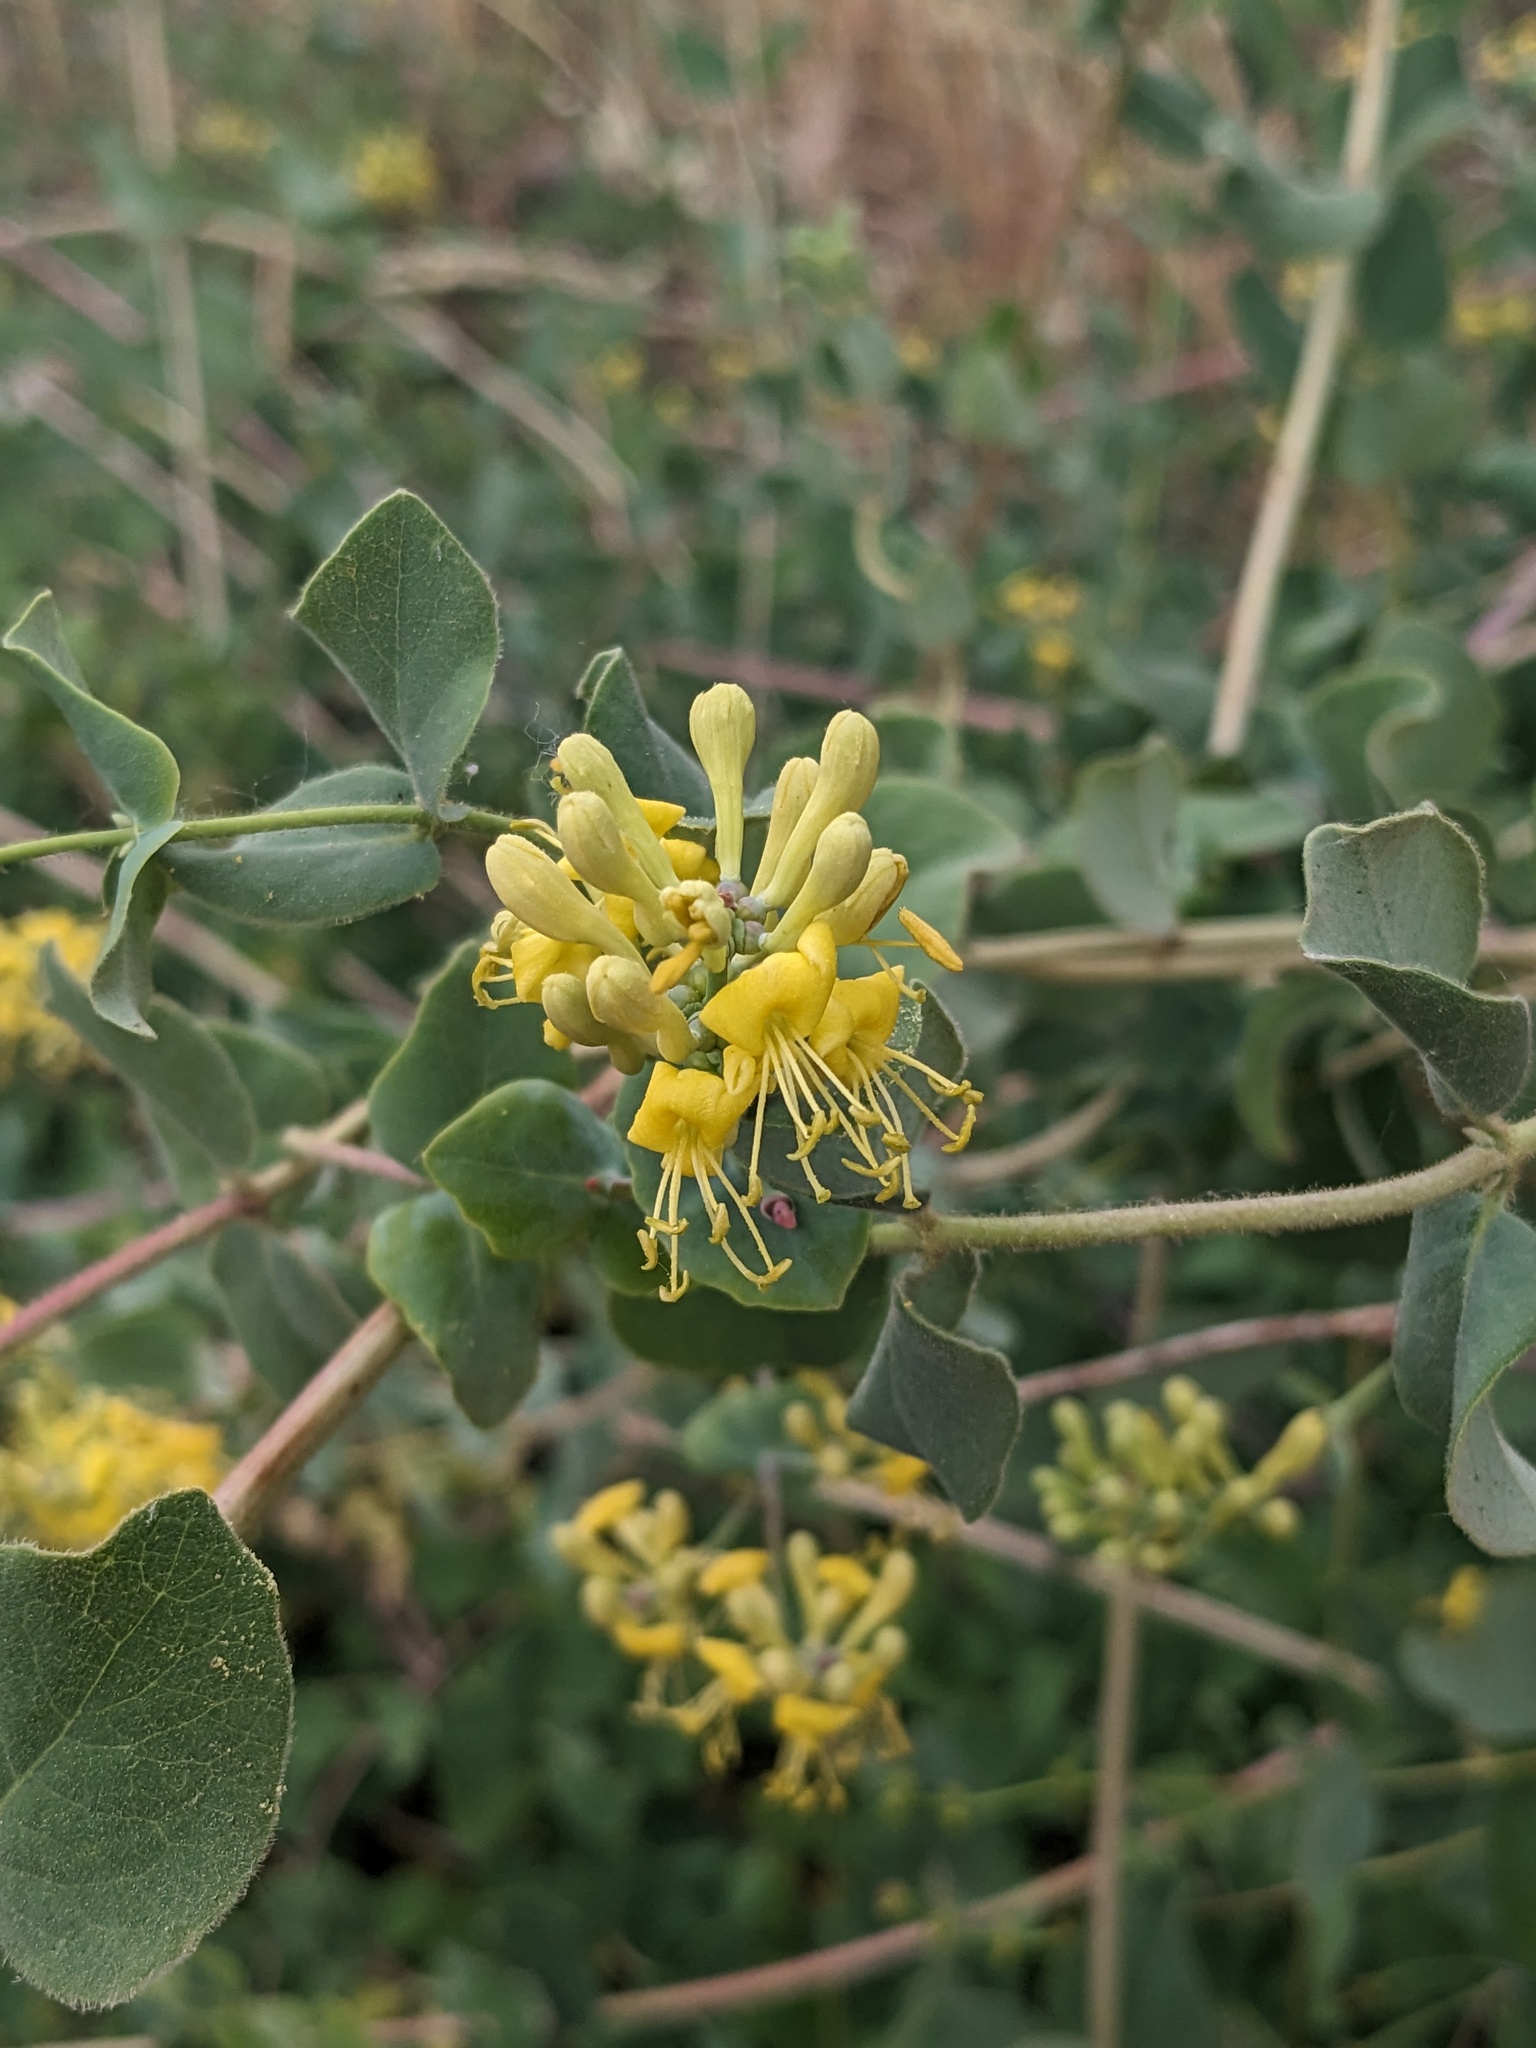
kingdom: Plantae
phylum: Tracheophyta
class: Magnoliopsida
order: Dipsacales
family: Caprifoliaceae
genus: Lonicera
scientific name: Lonicera interrupta
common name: Chaparral honeysuckle
